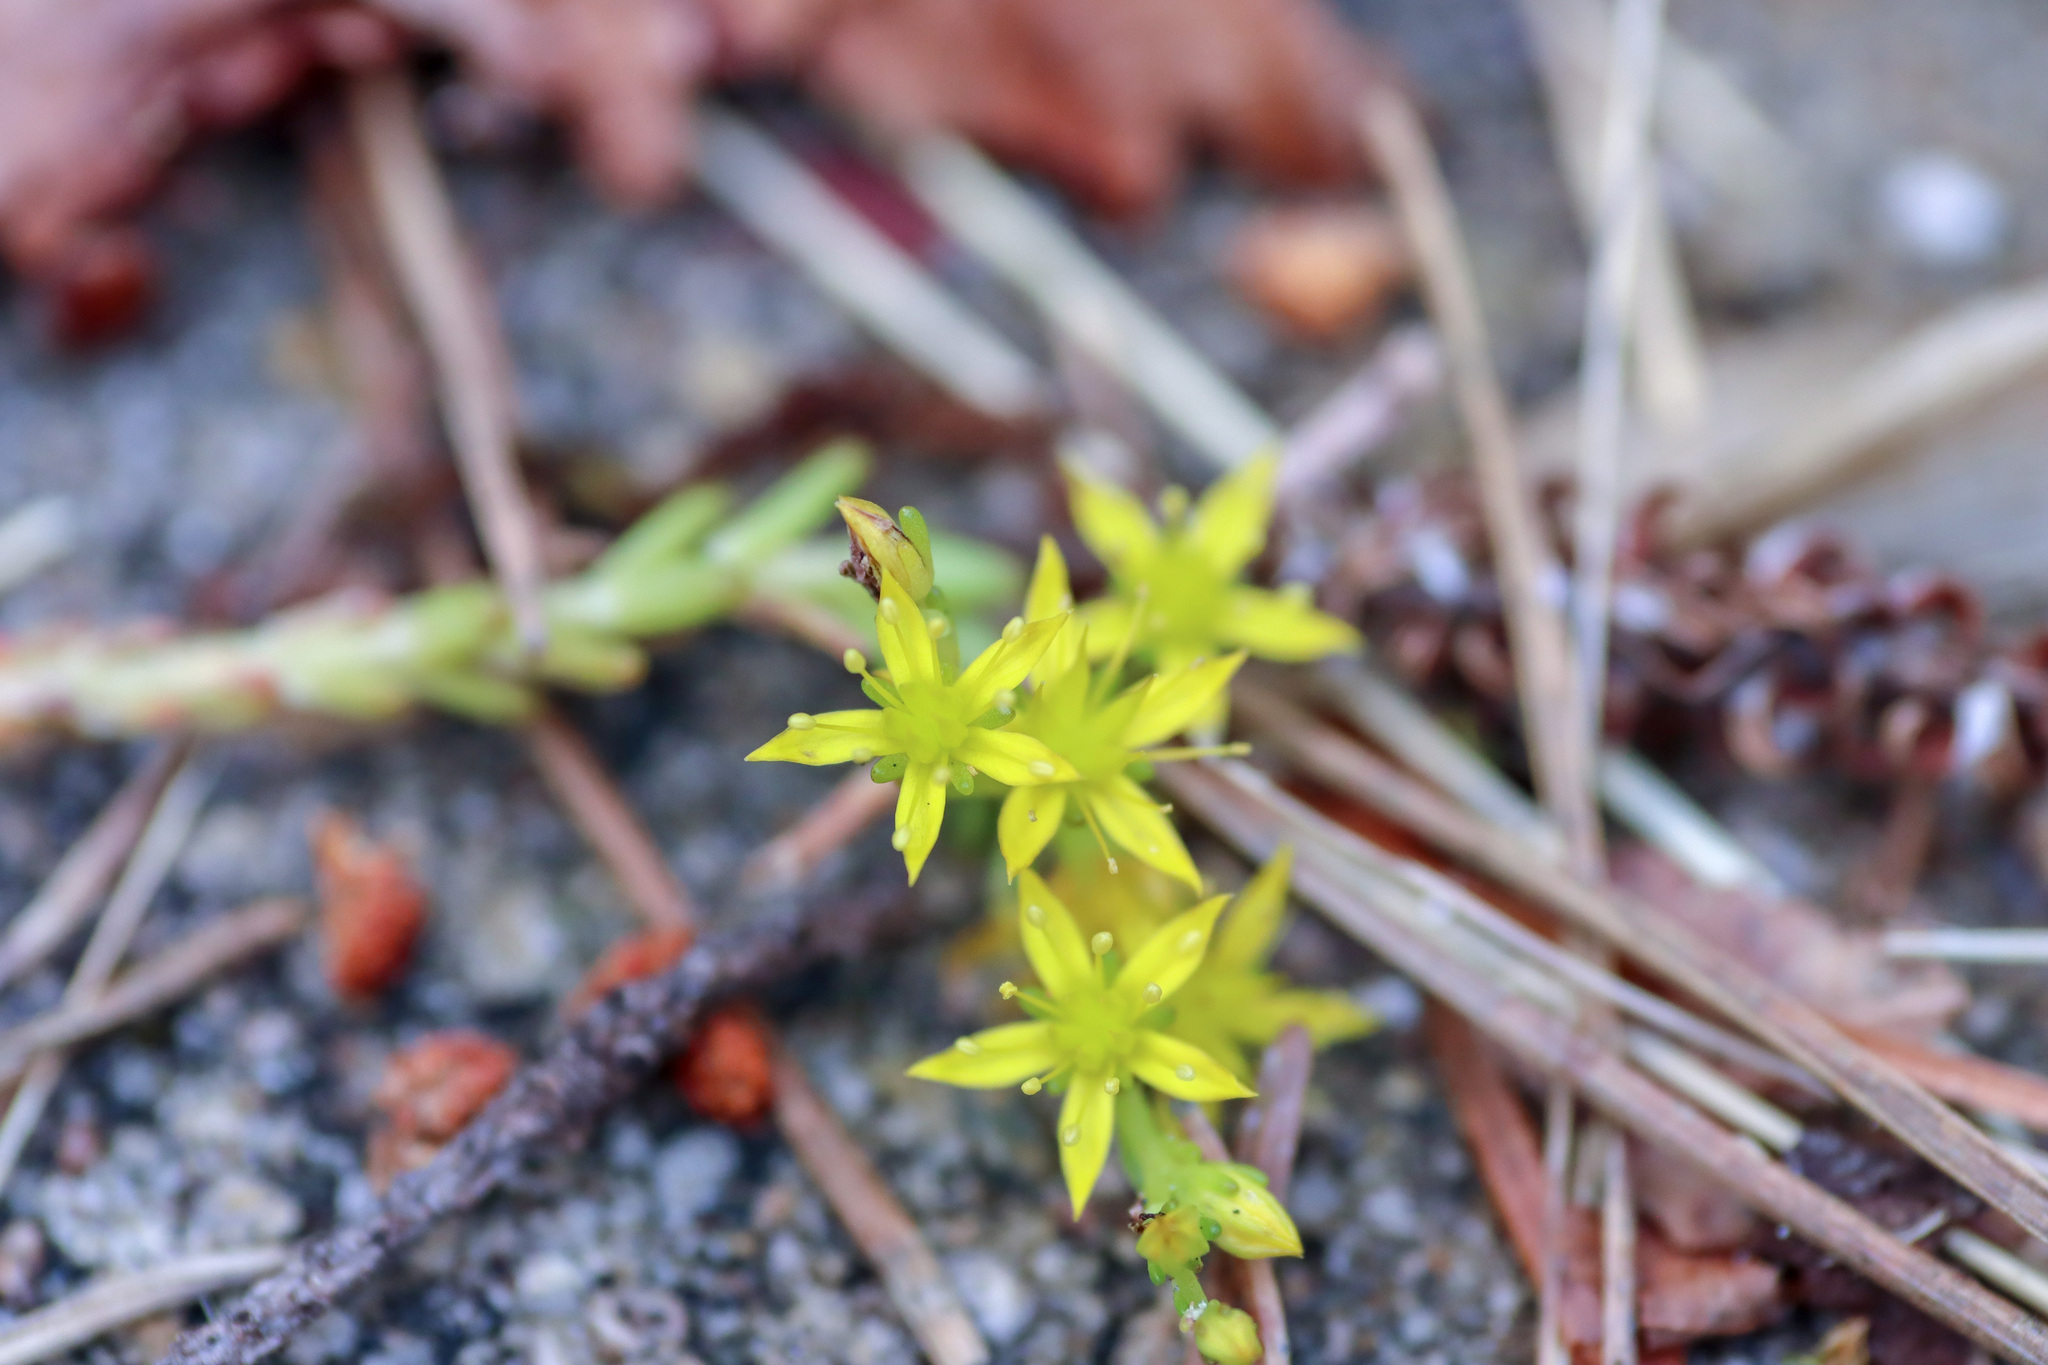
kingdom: Plantae
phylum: Tracheophyta
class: Magnoliopsida
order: Saxifragales
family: Crassulaceae
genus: Sedum
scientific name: Sedum acre
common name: Biting stonecrop
